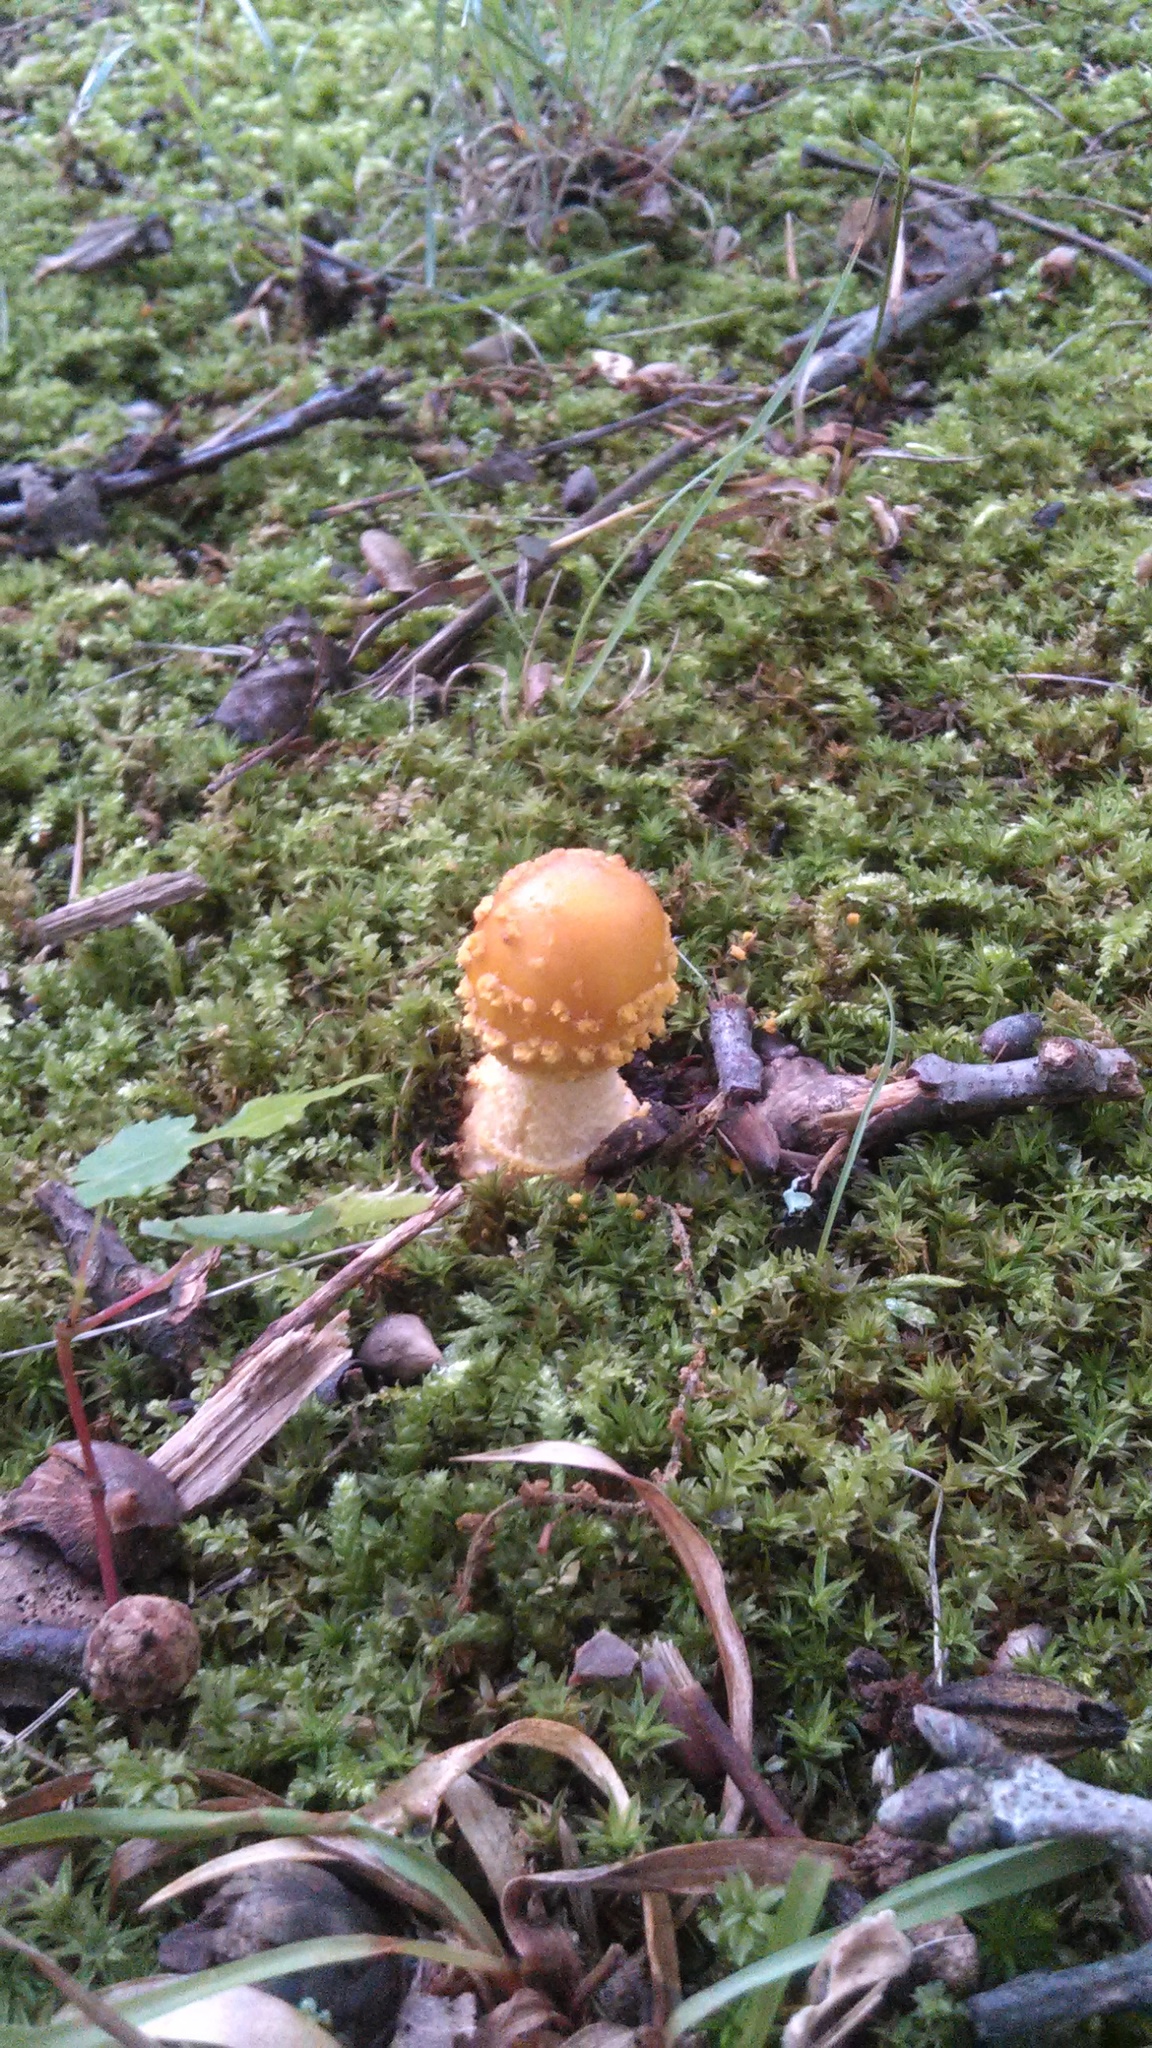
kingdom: Fungi
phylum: Basidiomycota
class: Agaricomycetes
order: Agaricales
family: Amanitaceae
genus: Amanita
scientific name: Amanita flavoconia
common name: Yellow patches
